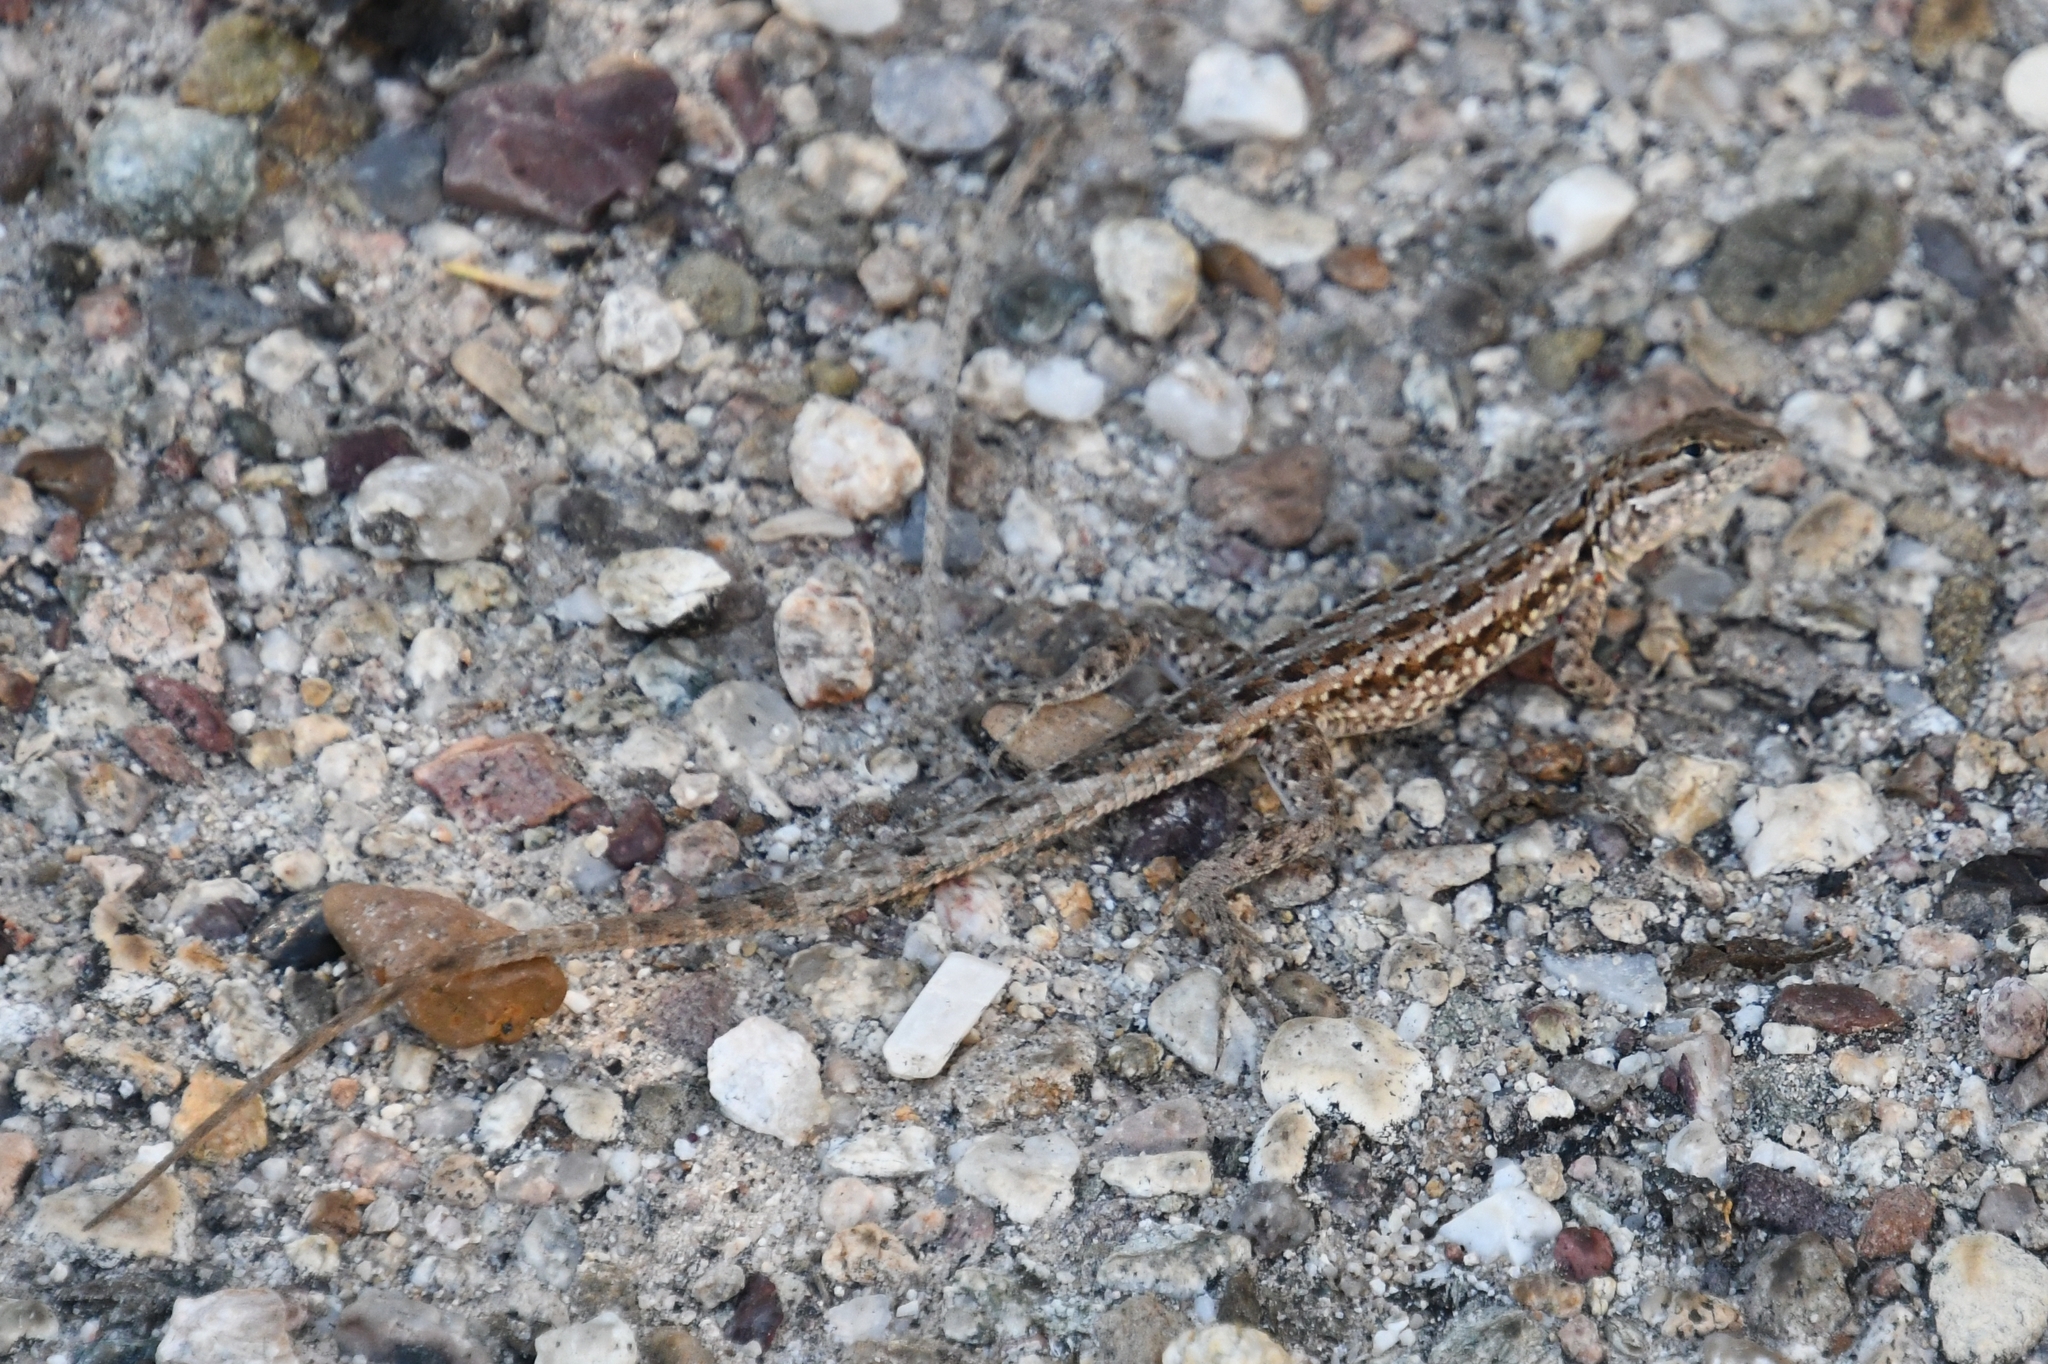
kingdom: Animalia
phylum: Chordata
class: Squamata
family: Phrynosomatidae
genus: Uta
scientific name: Uta stansburiana
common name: Side-blotched lizard
